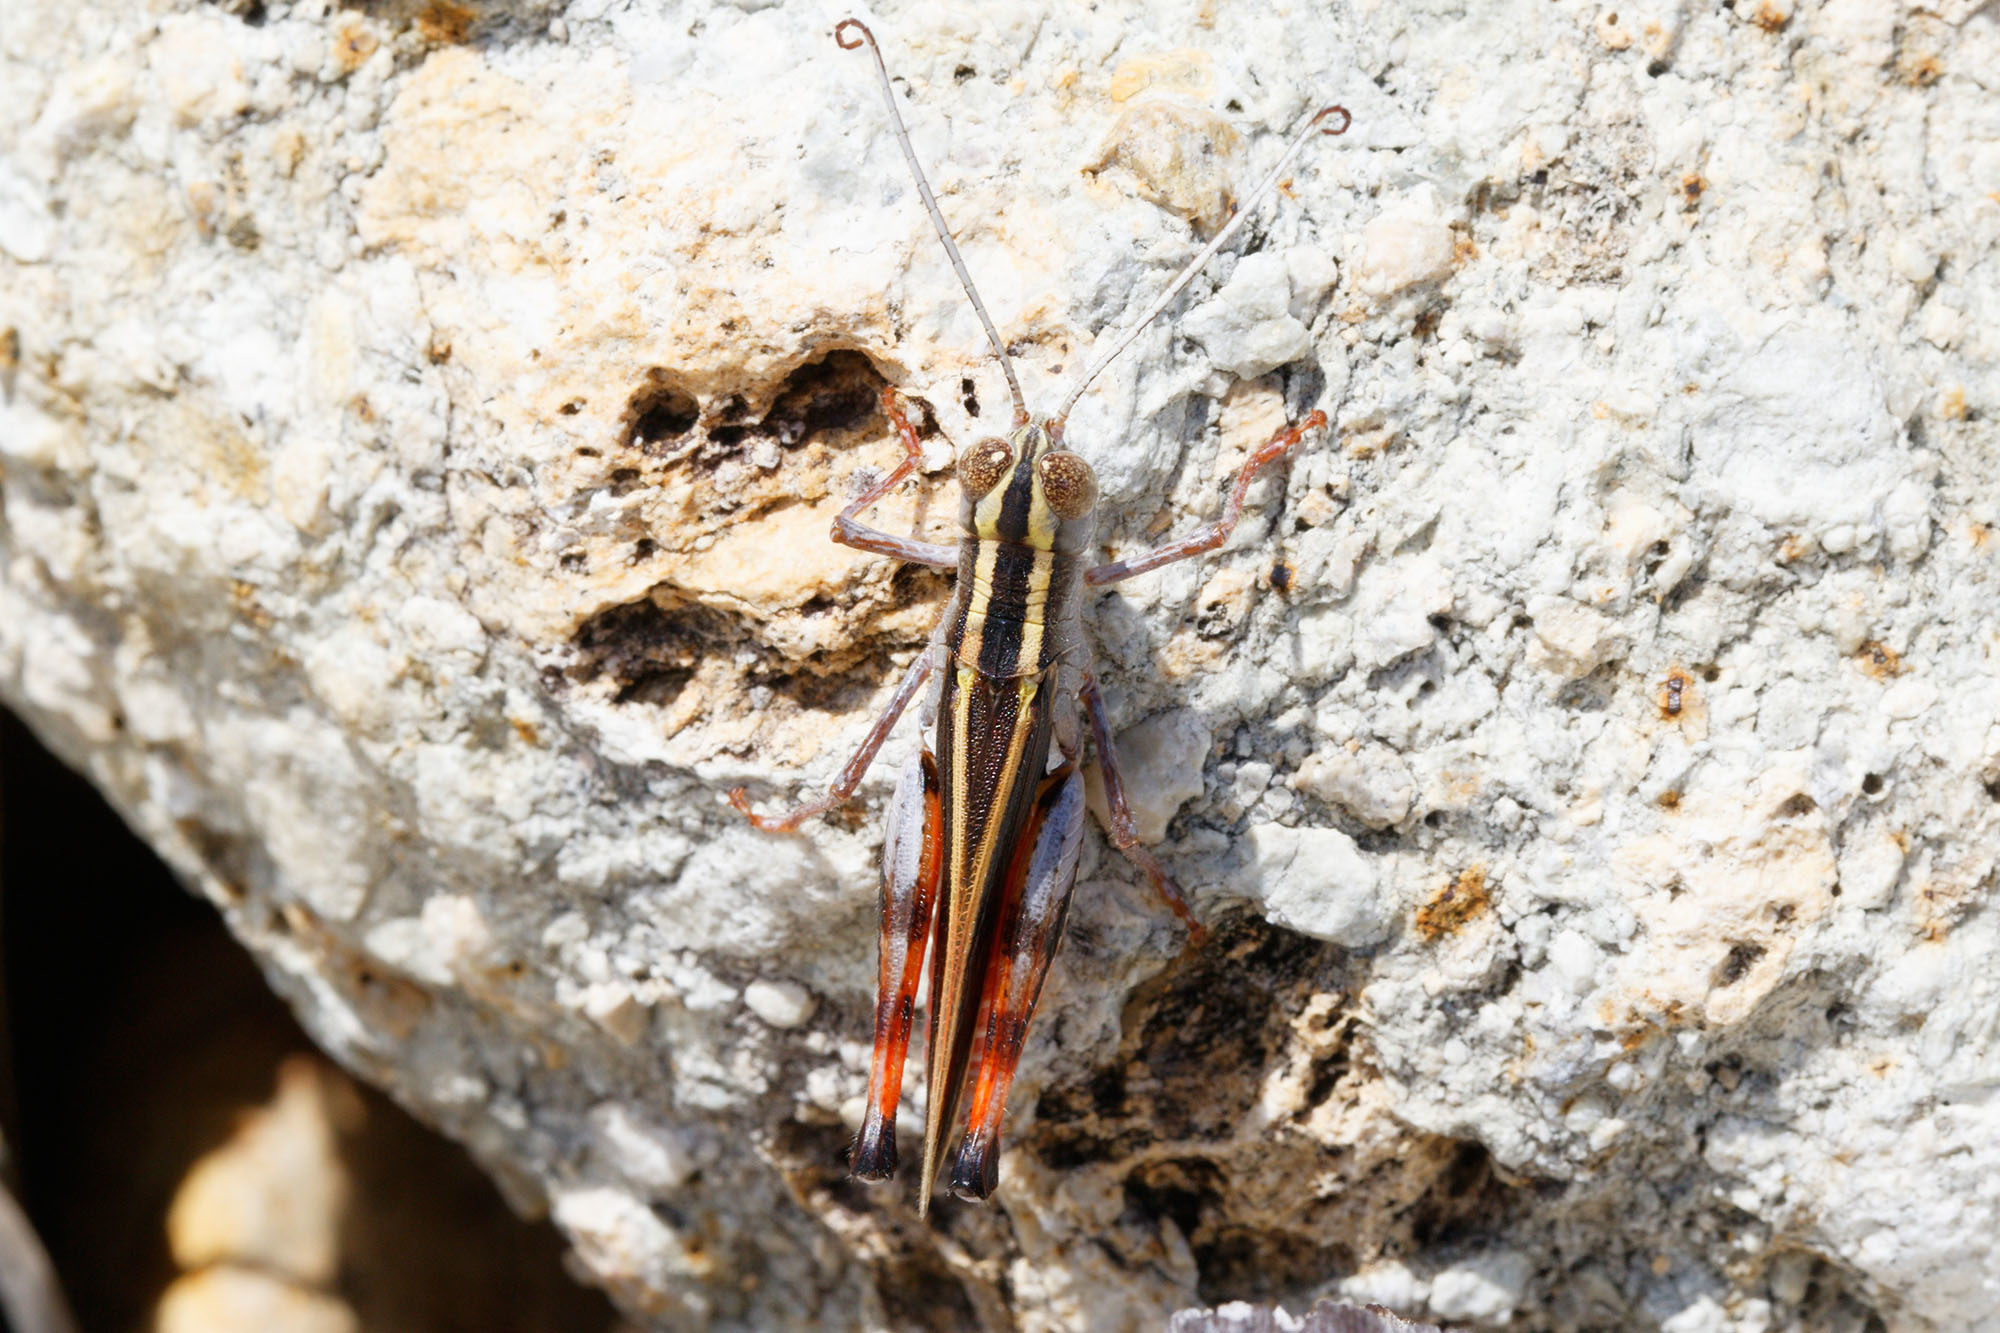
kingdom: Animalia
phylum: Arthropoda
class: Insecta
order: Orthoptera
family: Acrididae
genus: Macrocara
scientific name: Macrocara conglobata
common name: Rainbow grasshopper
